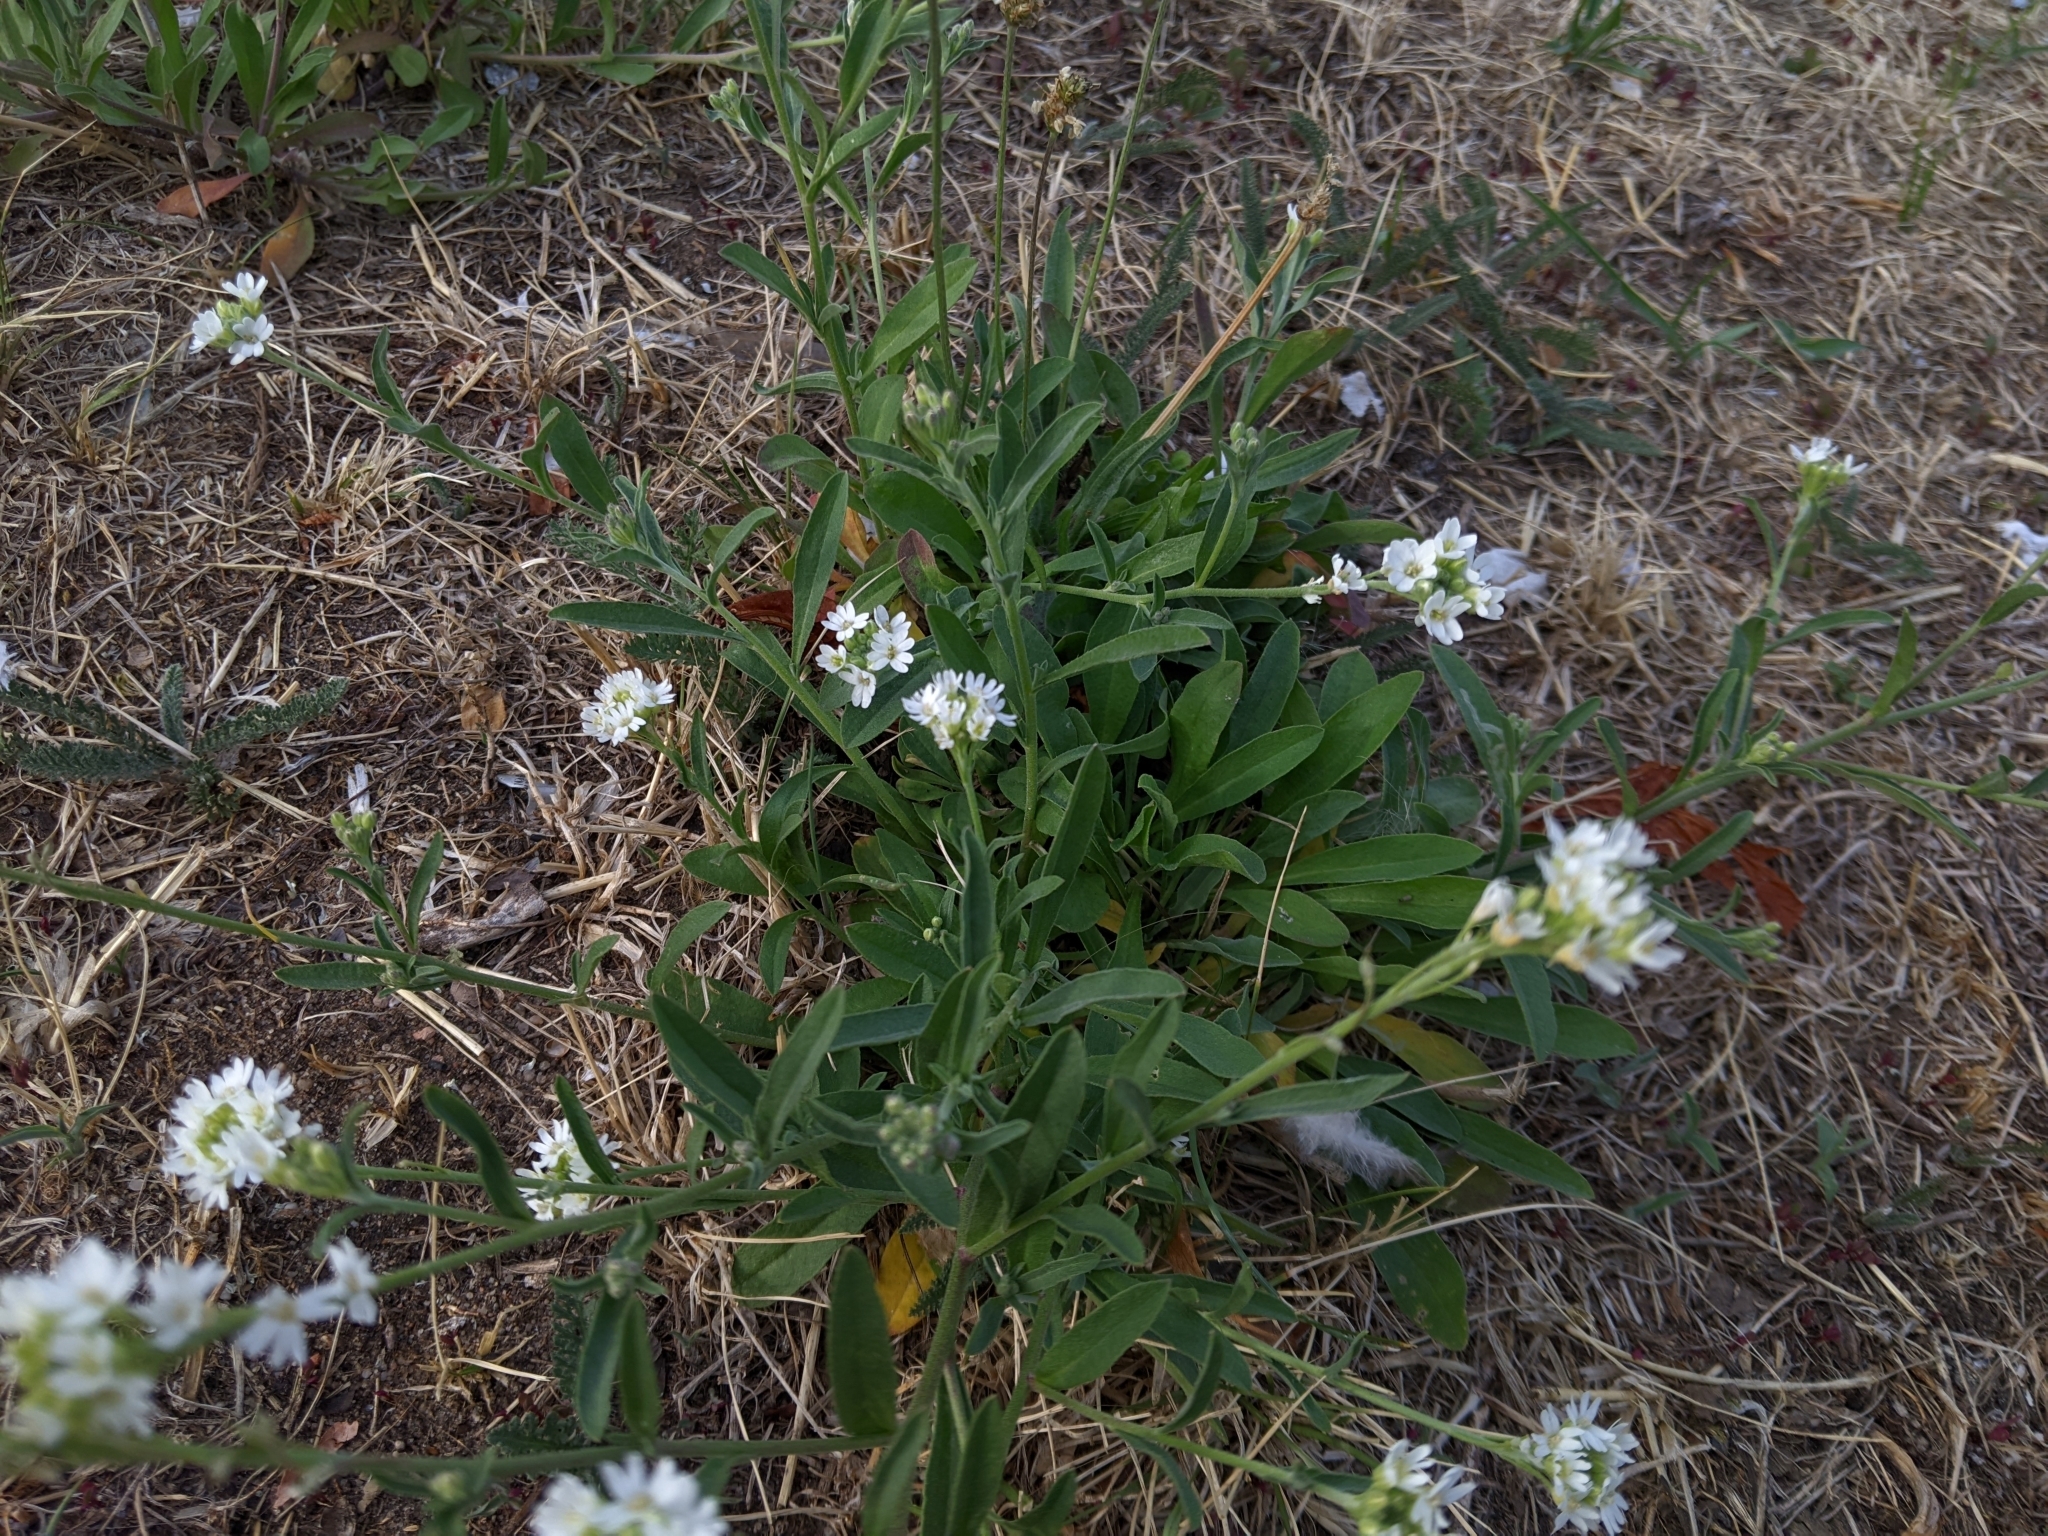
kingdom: Plantae
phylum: Tracheophyta
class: Magnoliopsida
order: Brassicales
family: Brassicaceae
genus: Berteroa
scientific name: Berteroa incana
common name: Hoary alison
